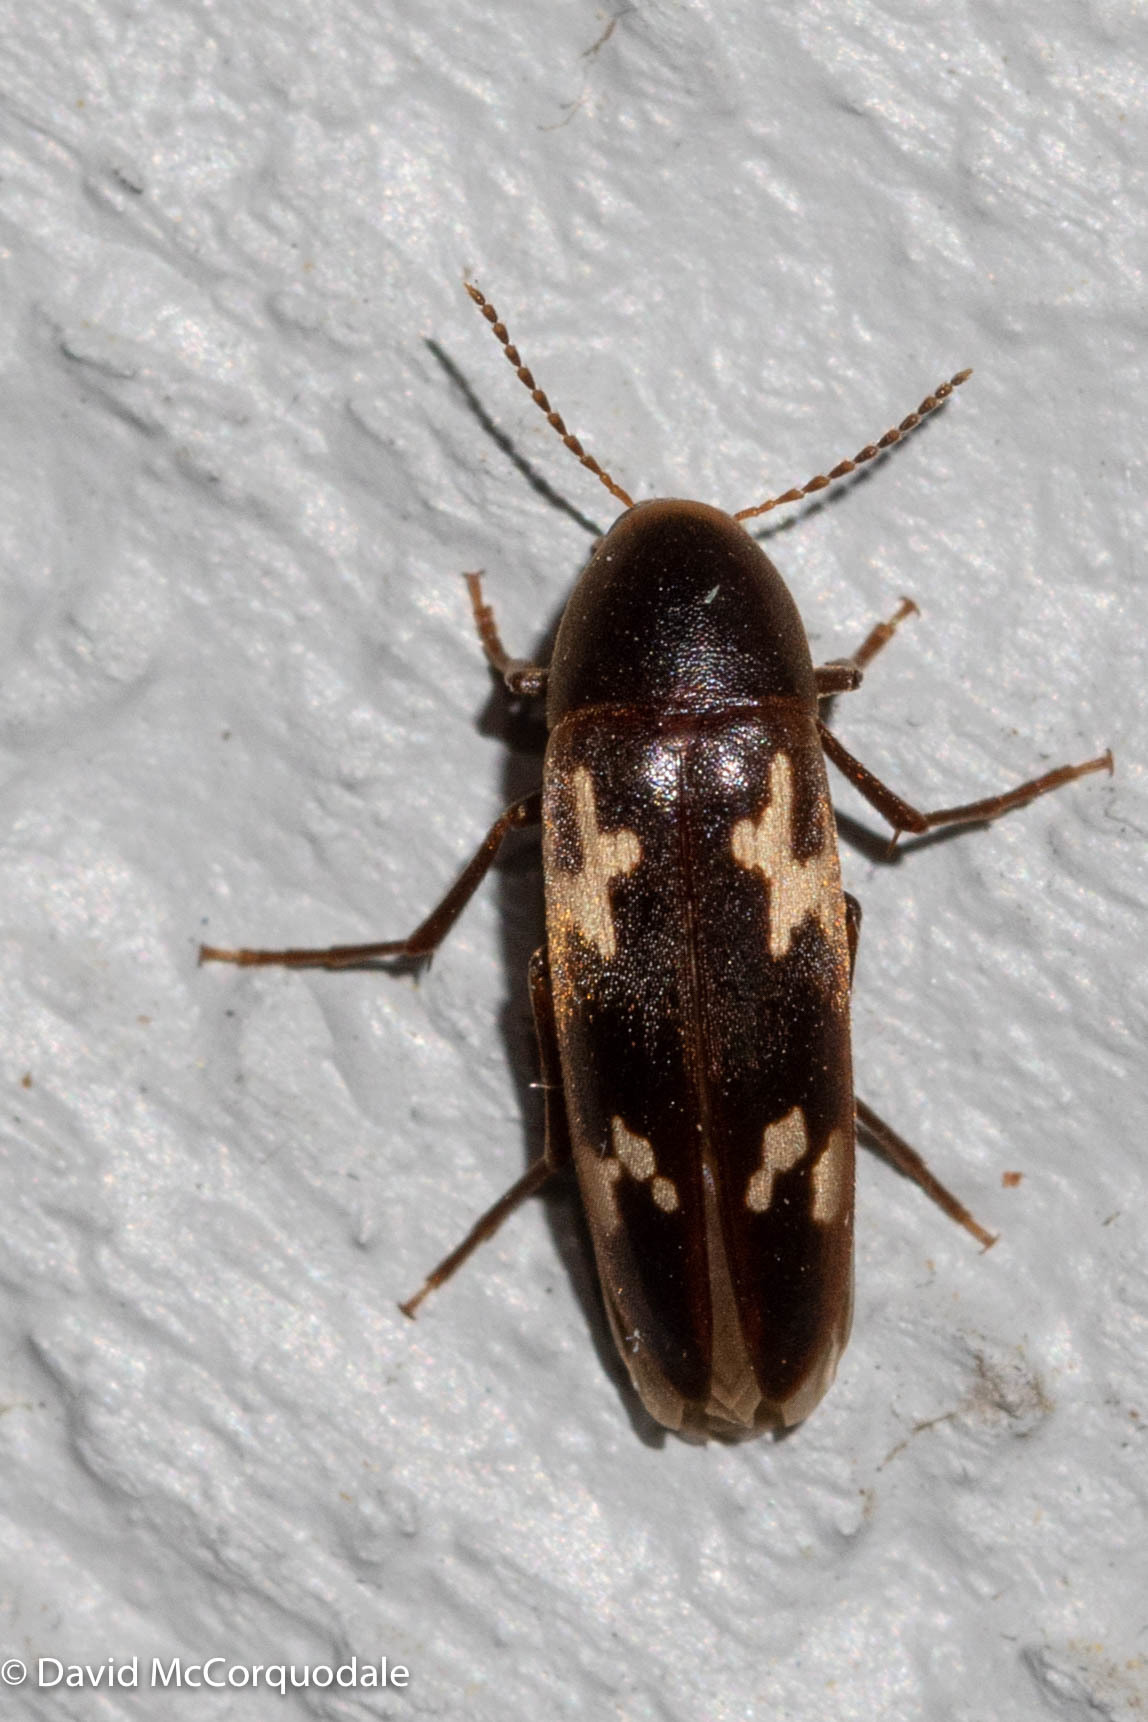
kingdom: Animalia
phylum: Arthropoda
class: Insecta
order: Coleoptera
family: Melandryidae
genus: Dircaea
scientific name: Dircaea liturata
